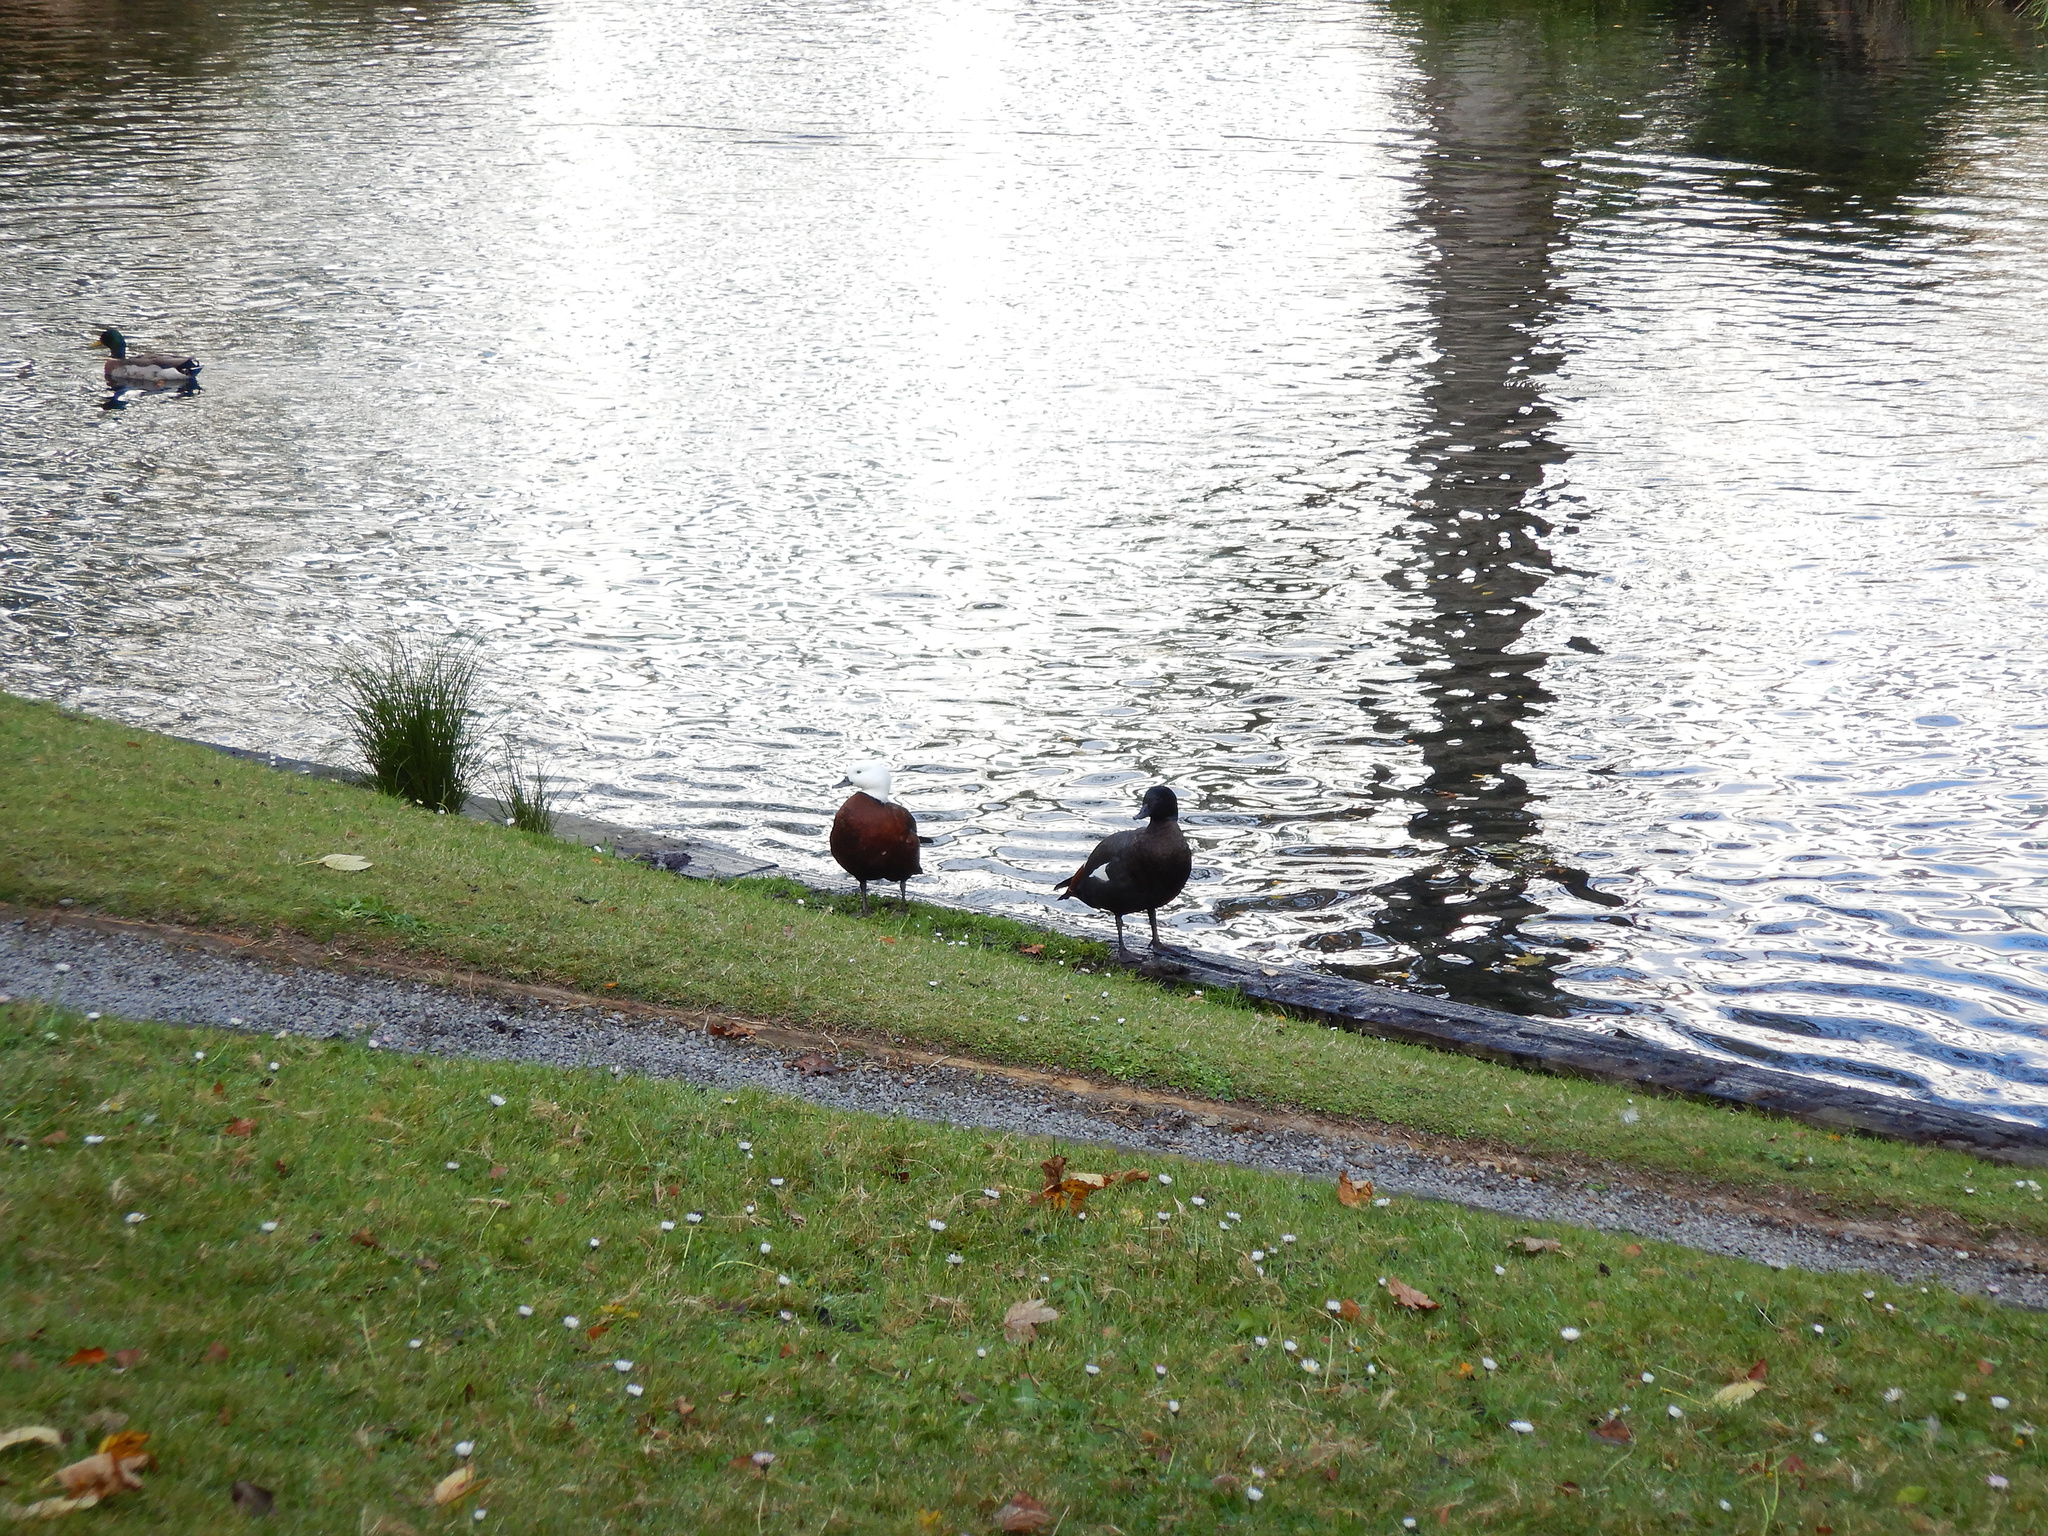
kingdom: Animalia
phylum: Chordata
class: Aves
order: Anseriformes
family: Anatidae
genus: Tadorna
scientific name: Tadorna variegata
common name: Paradise shelduck
